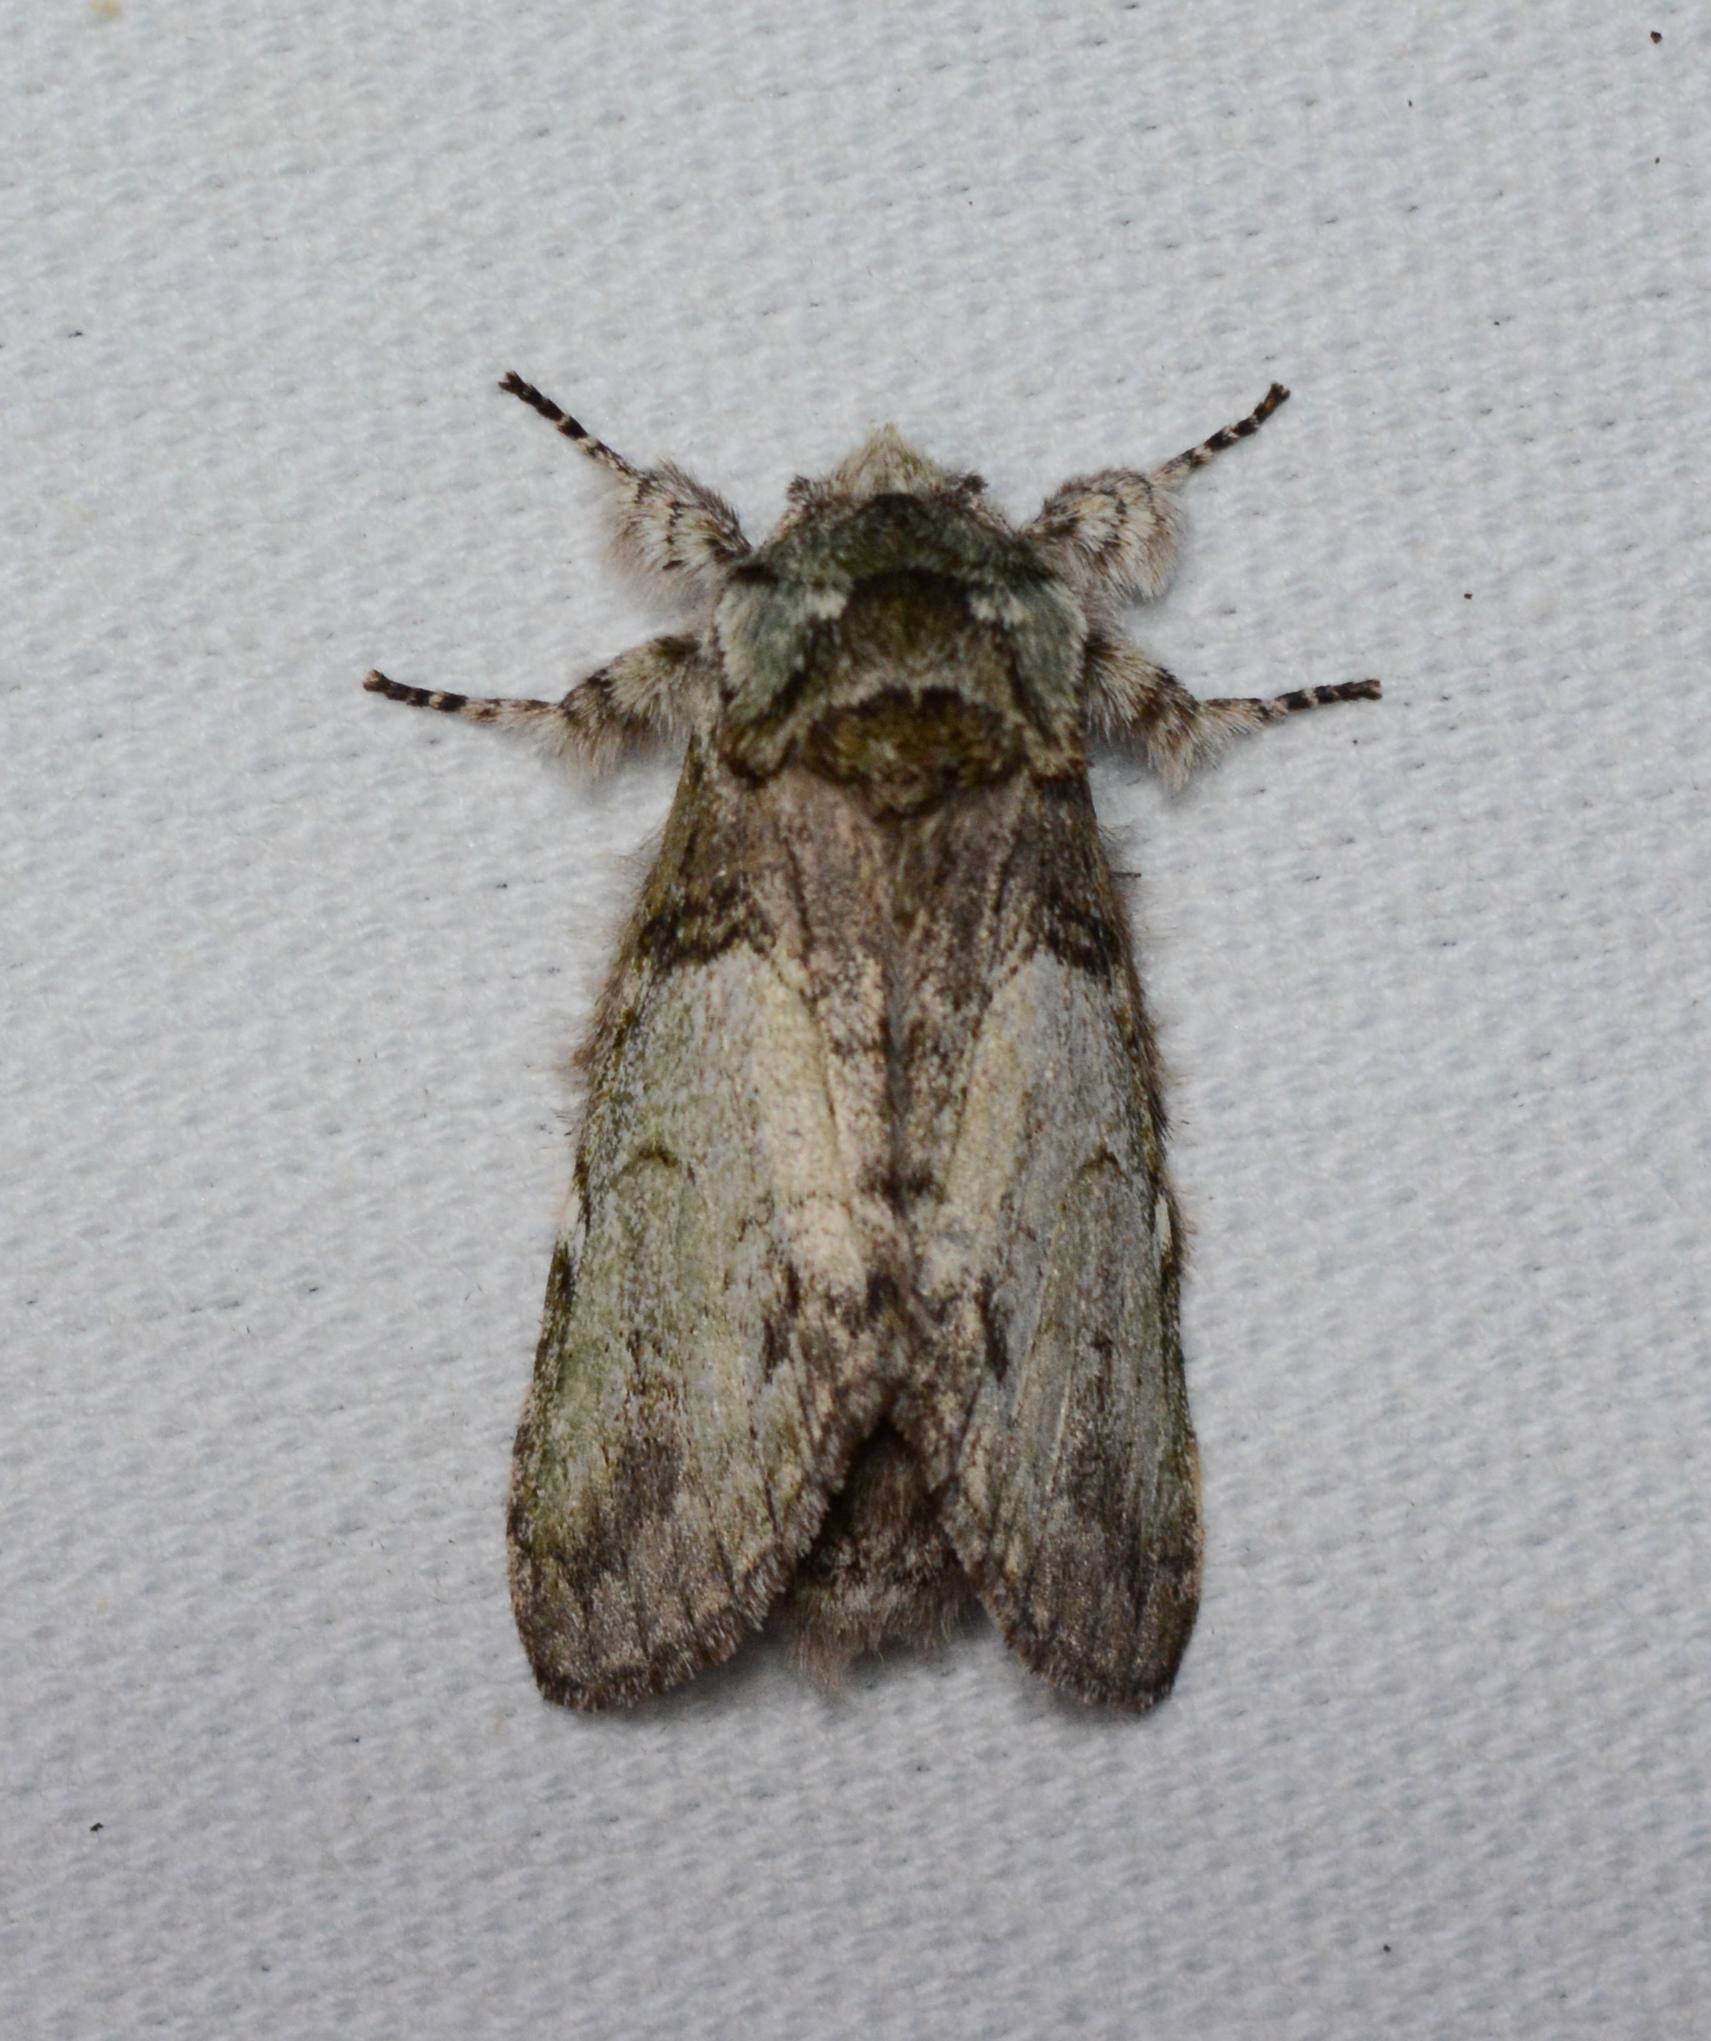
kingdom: Animalia
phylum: Arthropoda
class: Insecta
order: Lepidoptera
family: Notodontidae
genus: Macrurocampa
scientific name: Macrurocampa marthesia
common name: Mottled prominent
